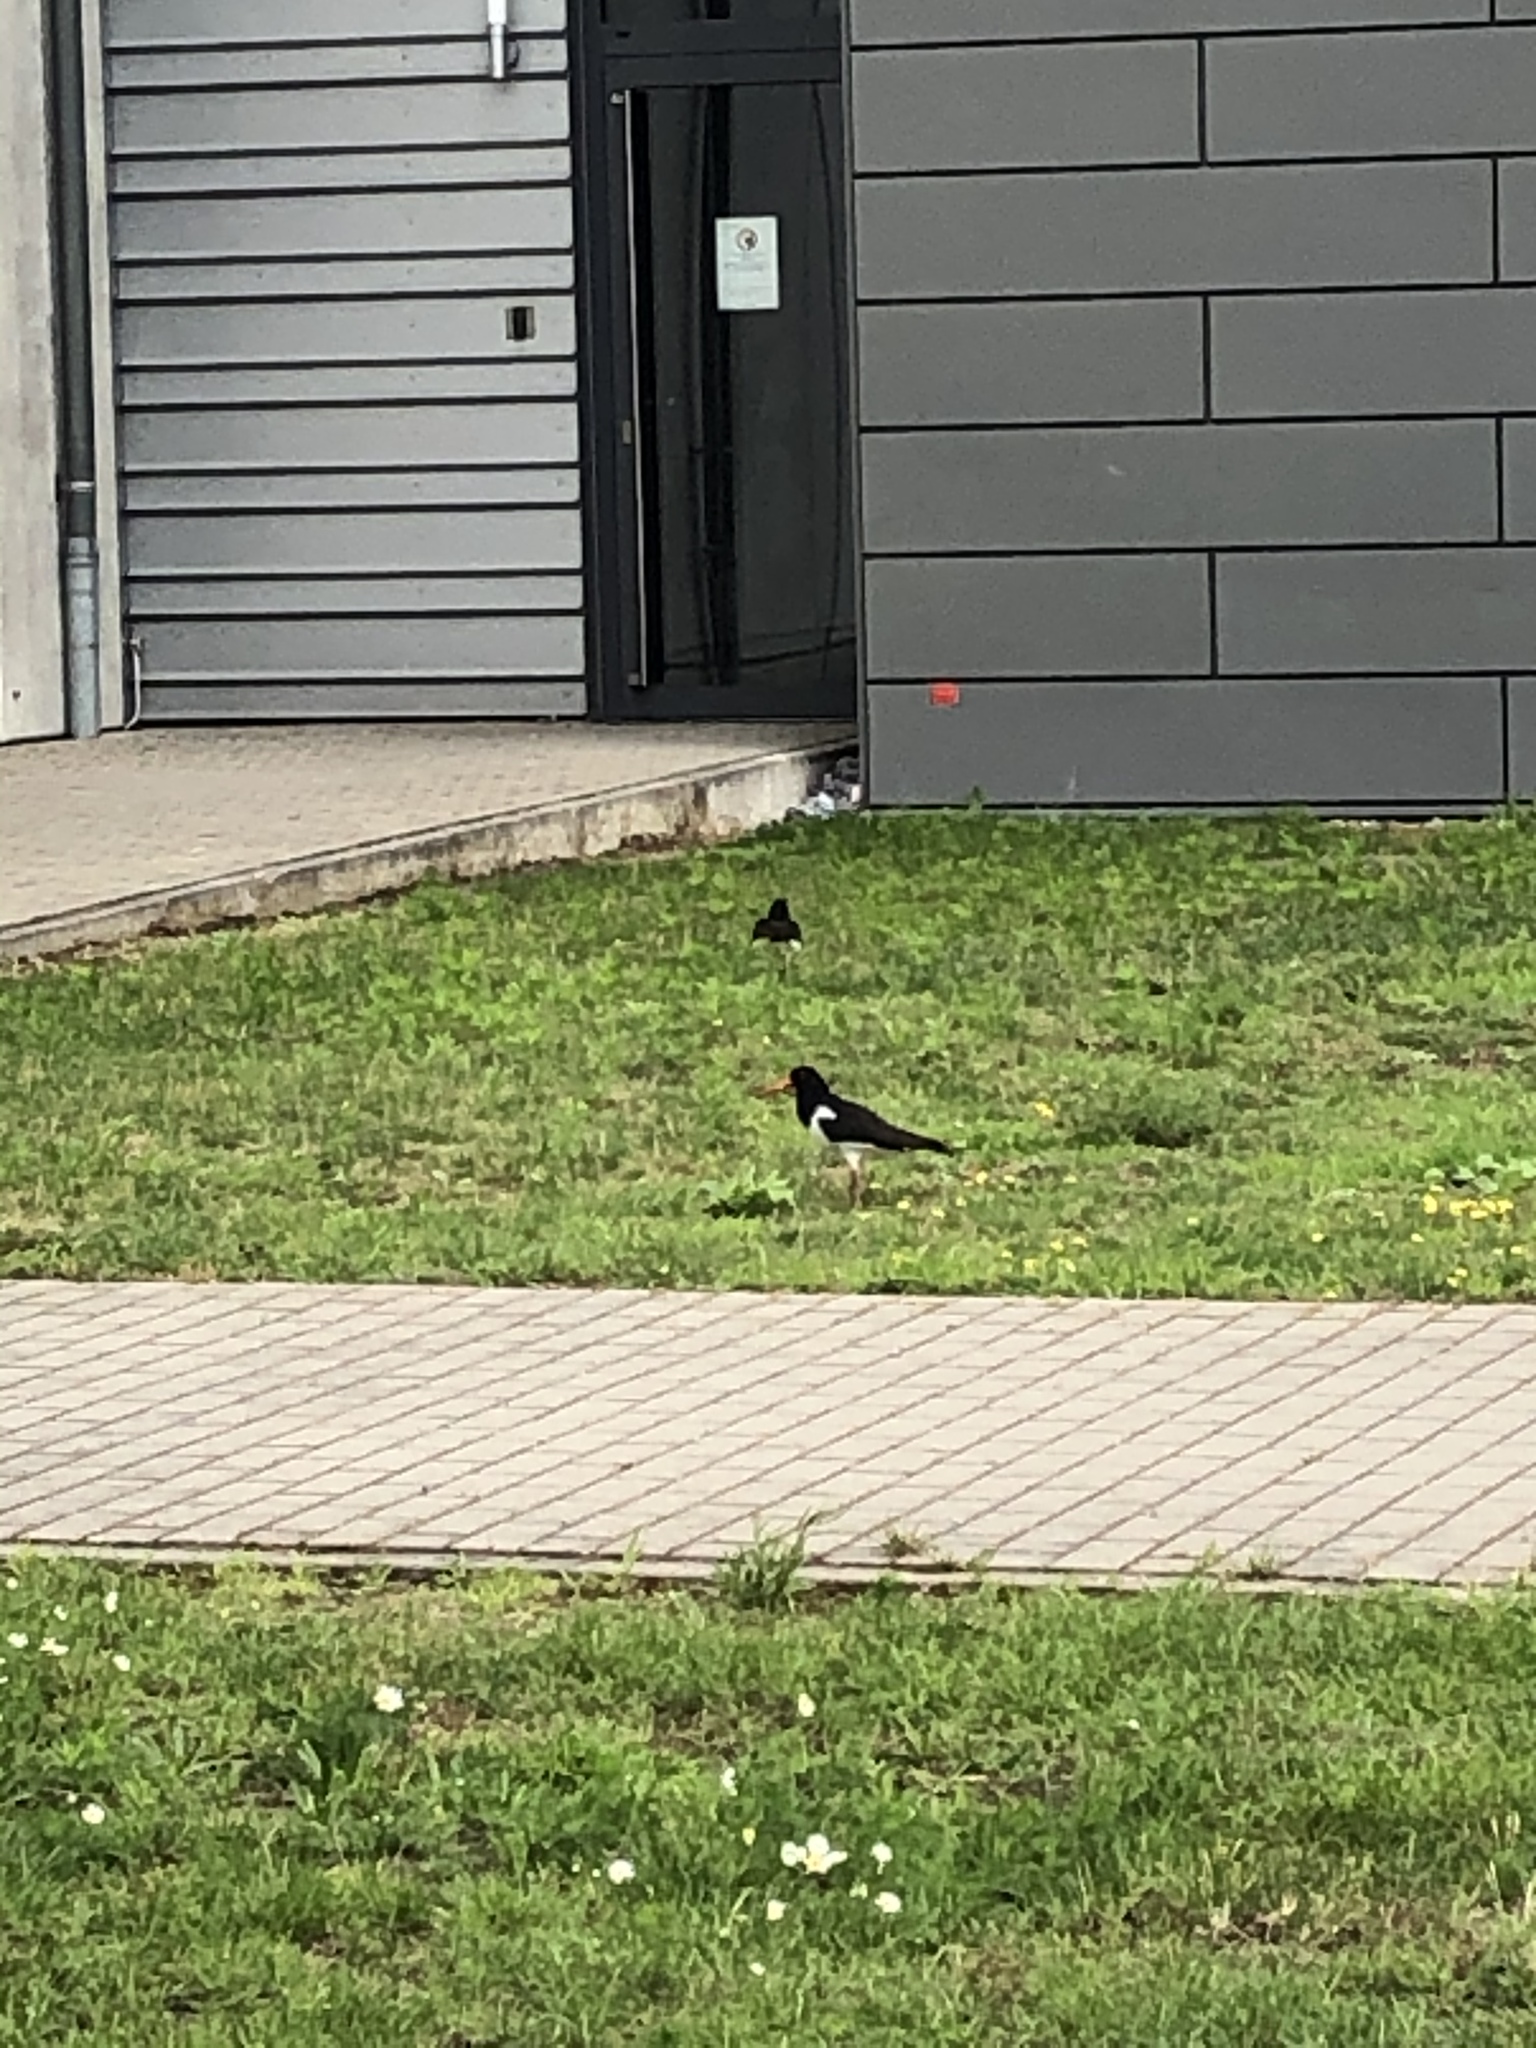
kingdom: Animalia
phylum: Chordata
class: Aves
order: Charadriiformes
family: Haematopodidae
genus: Haematopus
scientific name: Haematopus ostralegus
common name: Eurasian oystercatcher
